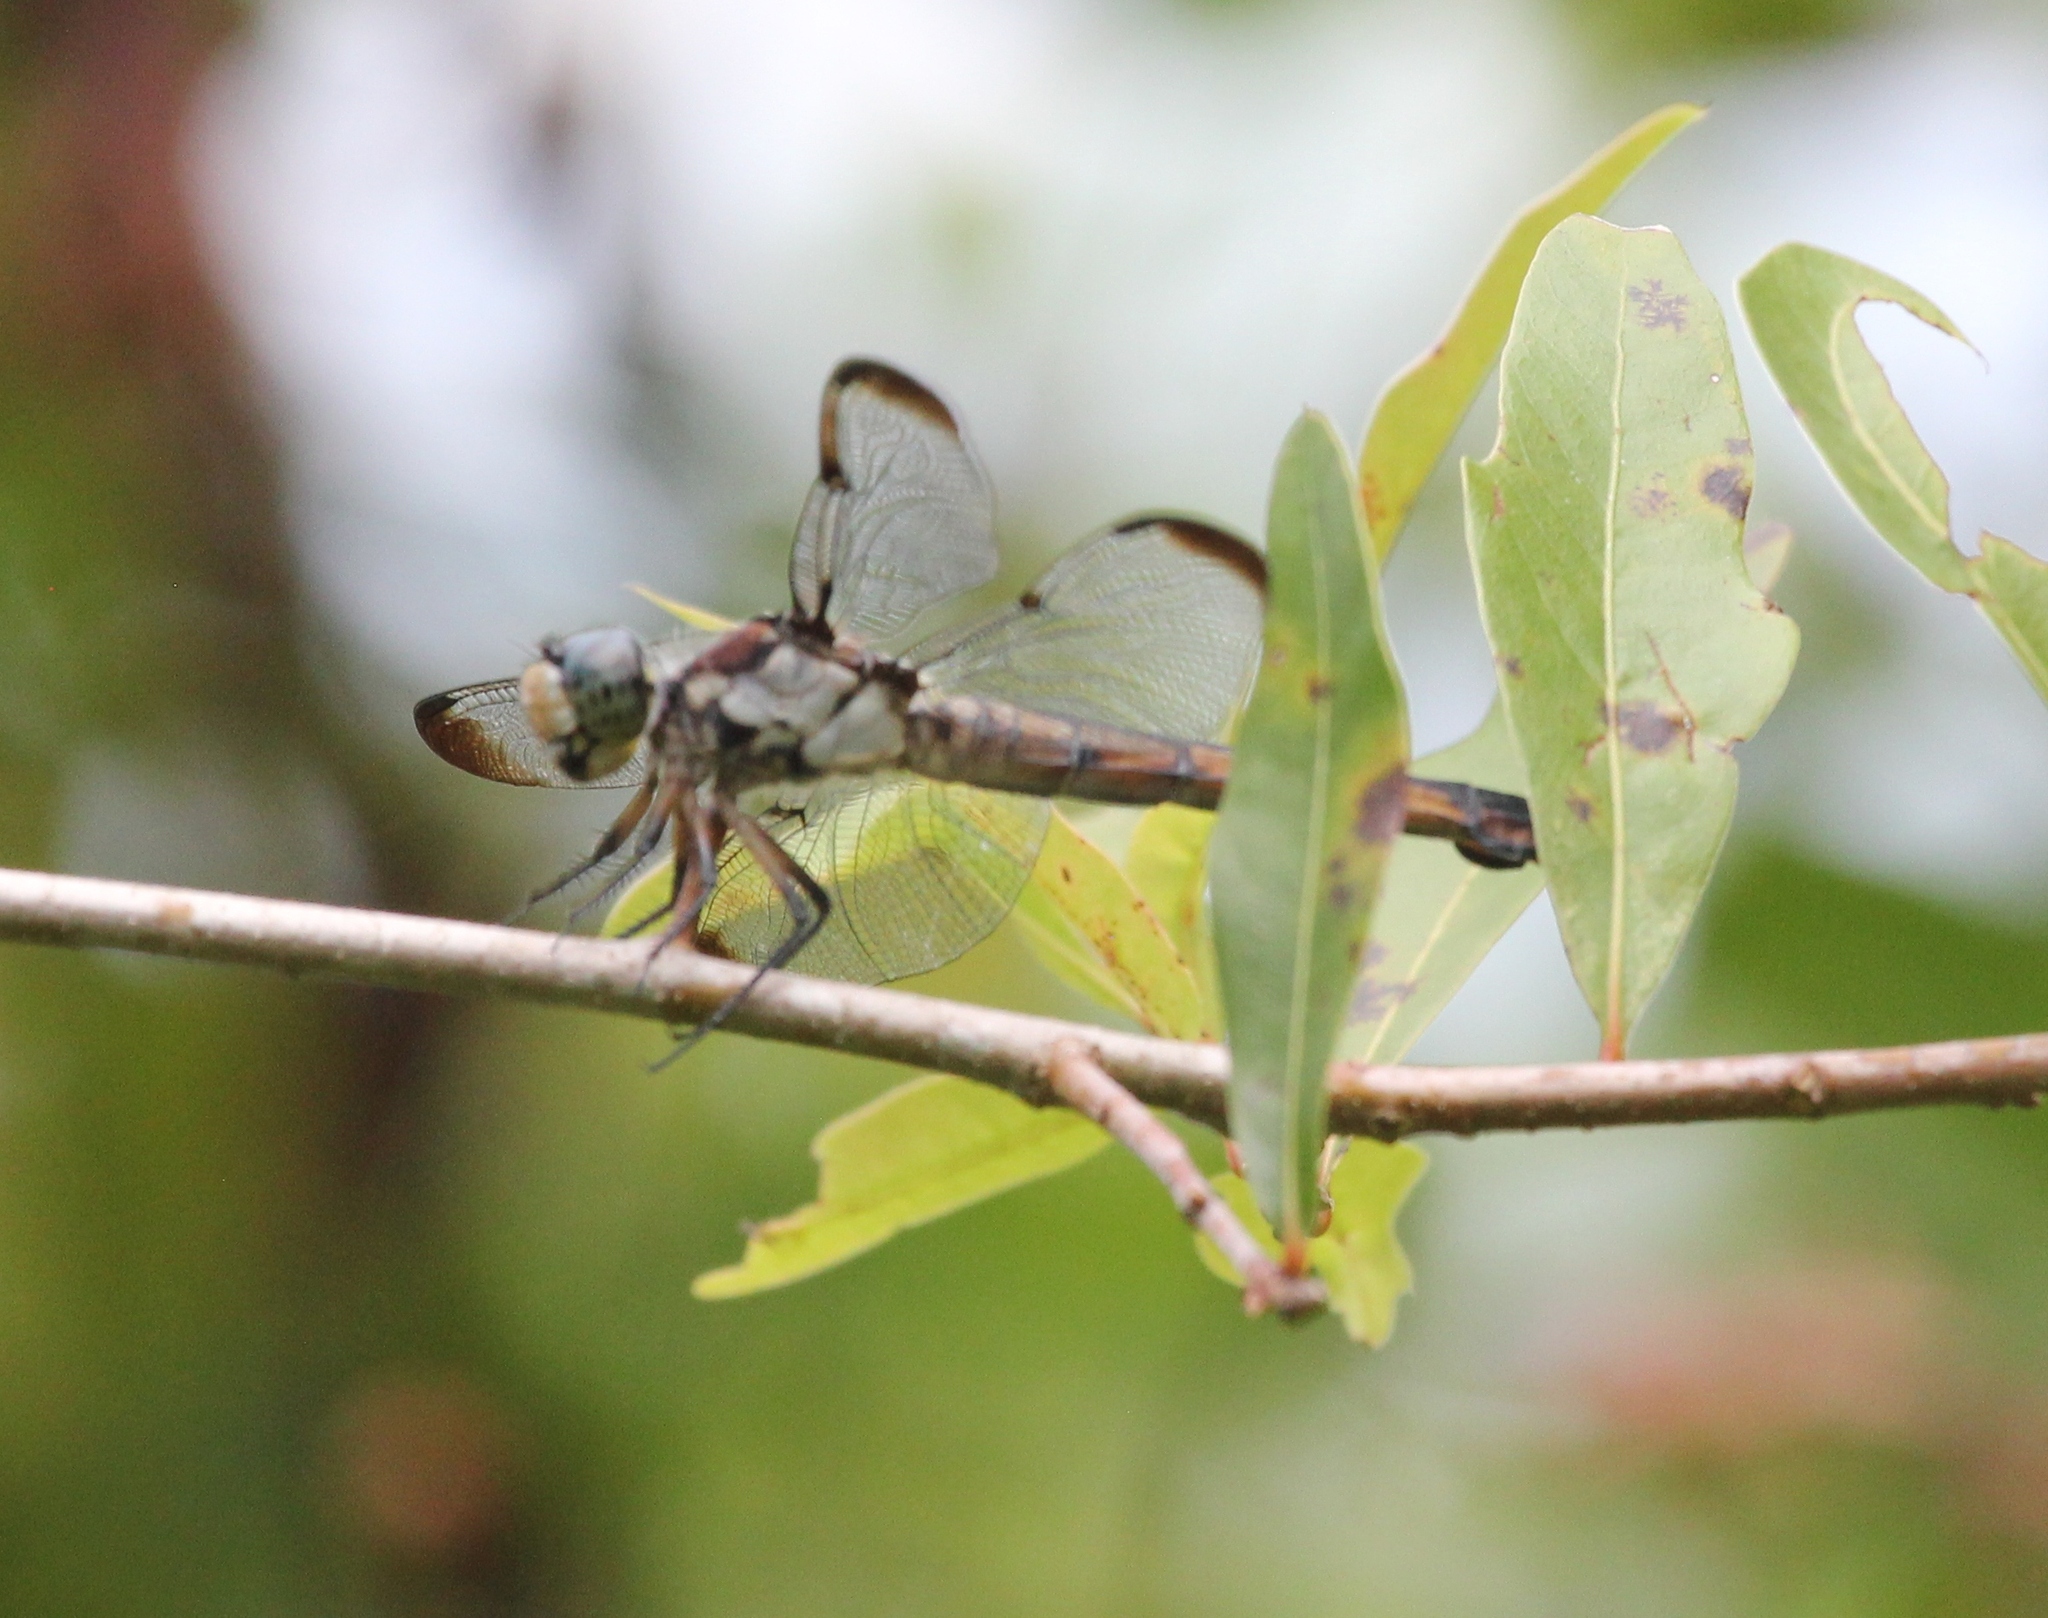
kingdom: Animalia
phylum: Arthropoda
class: Insecta
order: Odonata
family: Libellulidae
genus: Libellula
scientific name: Libellula vibrans
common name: Great blue skimmer
